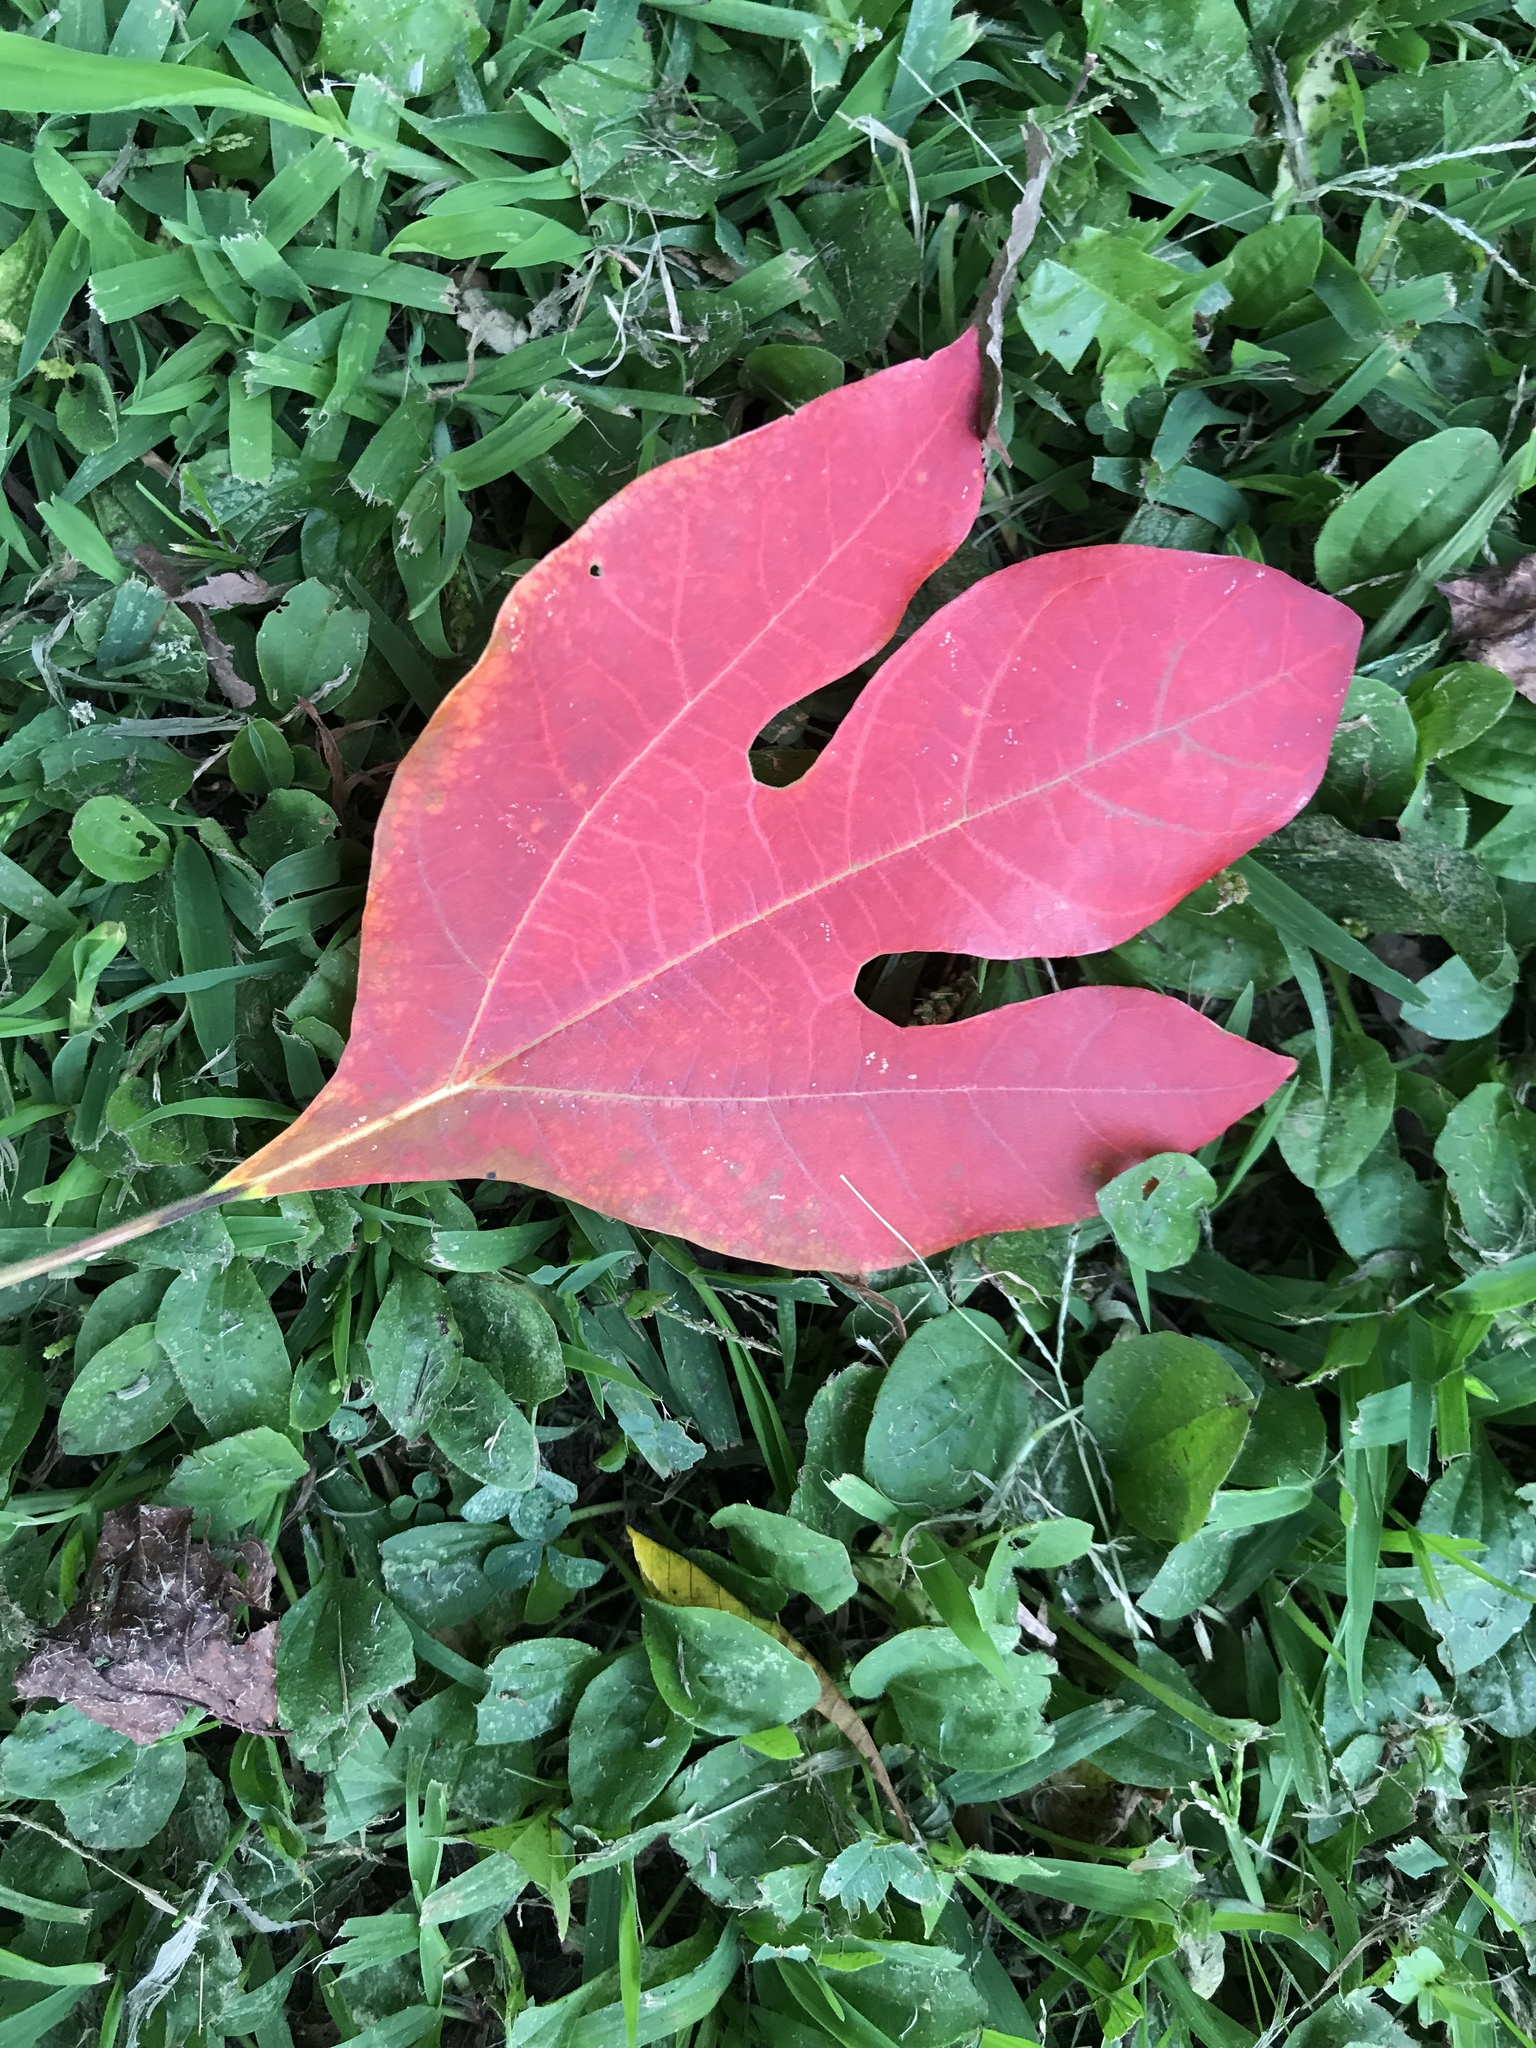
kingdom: Plantae
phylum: Tracheophyta
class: Magnoliopsida
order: Laurales
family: Lauraceae
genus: Sassafras
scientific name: Sassafras albidum
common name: Sassafras
